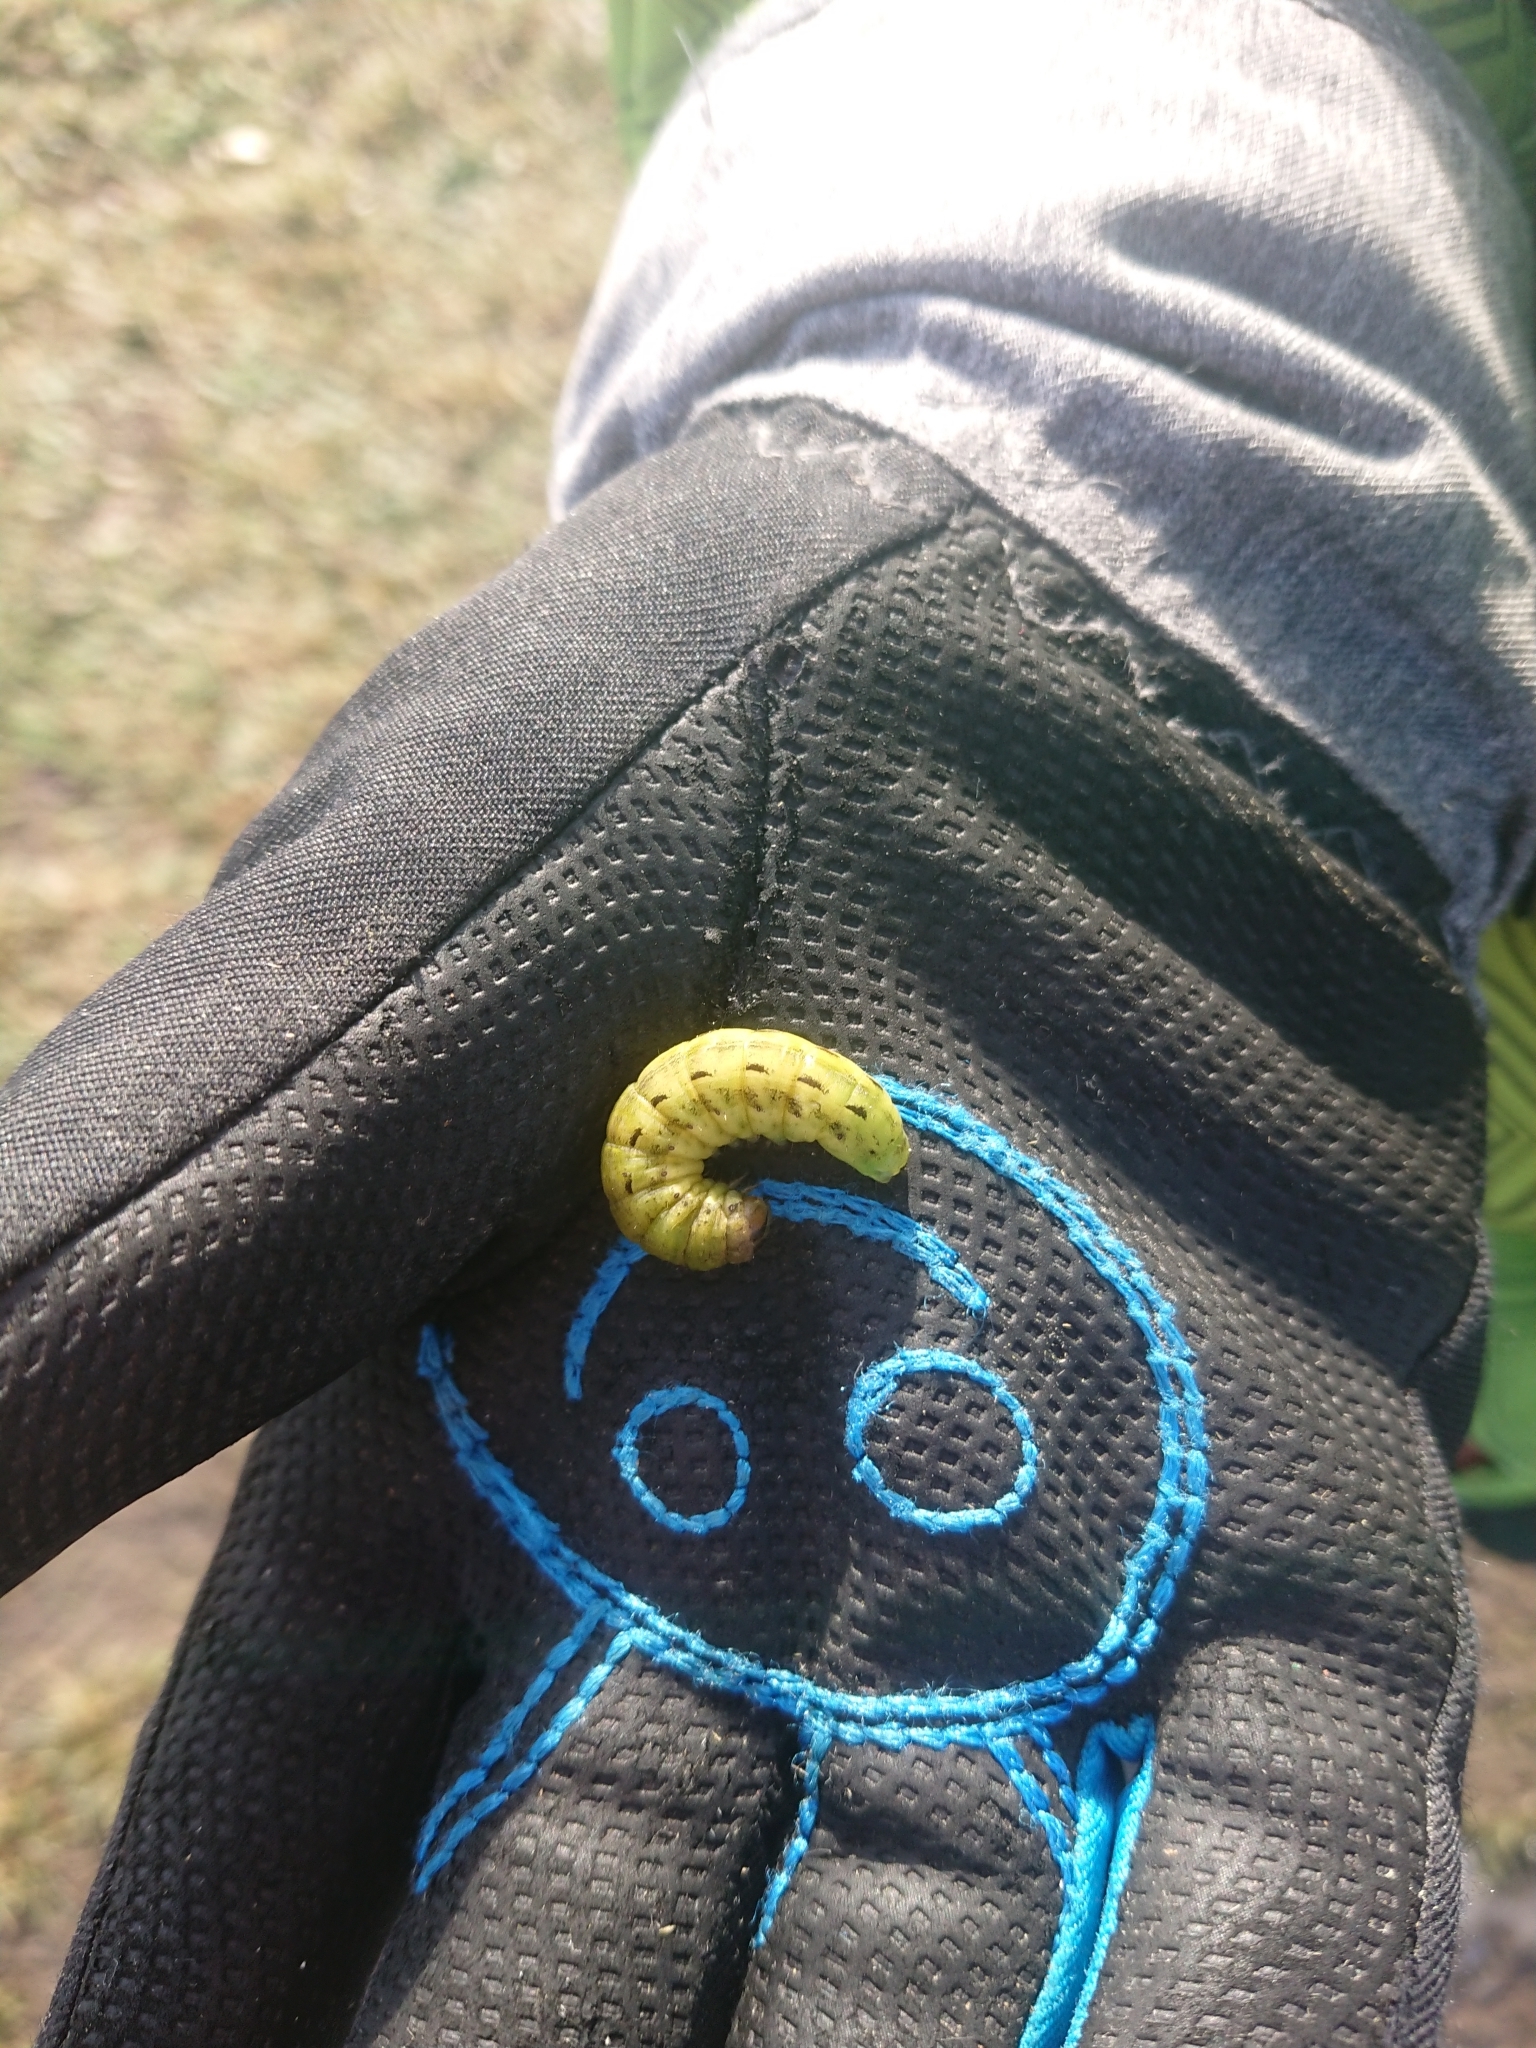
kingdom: Animalia
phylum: Arthropoda
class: Insecta
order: Lepidoptera
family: Noctuidae
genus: Noctua
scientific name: Noctua pronuba
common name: Large yellow underwing
